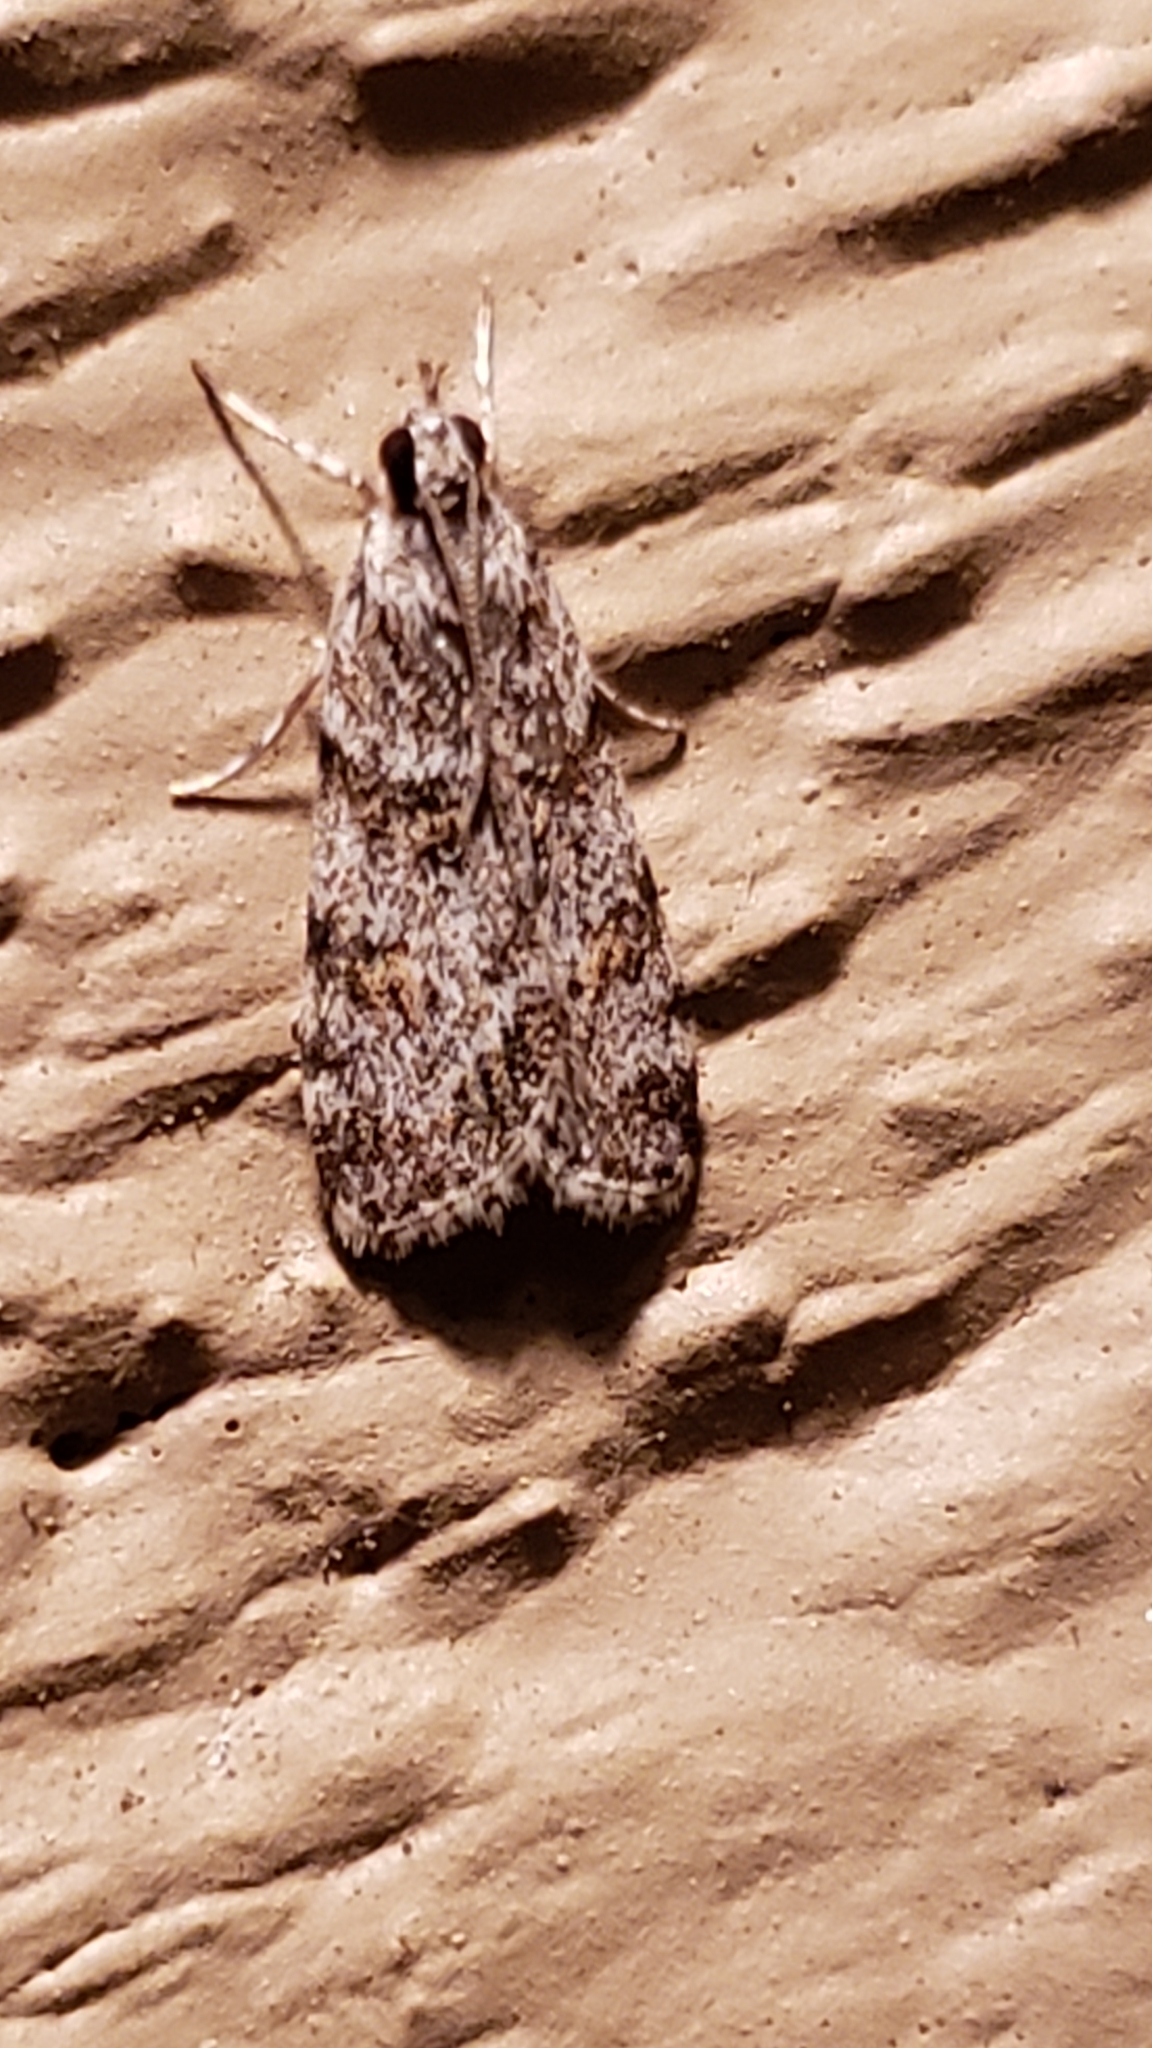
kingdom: Animalia
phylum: Arthropoda
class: Insecta
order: Lepidoptera
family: Crambidae
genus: Scoparia
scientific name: Scoparia biplagialis
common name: Double-striped scoparia moth
